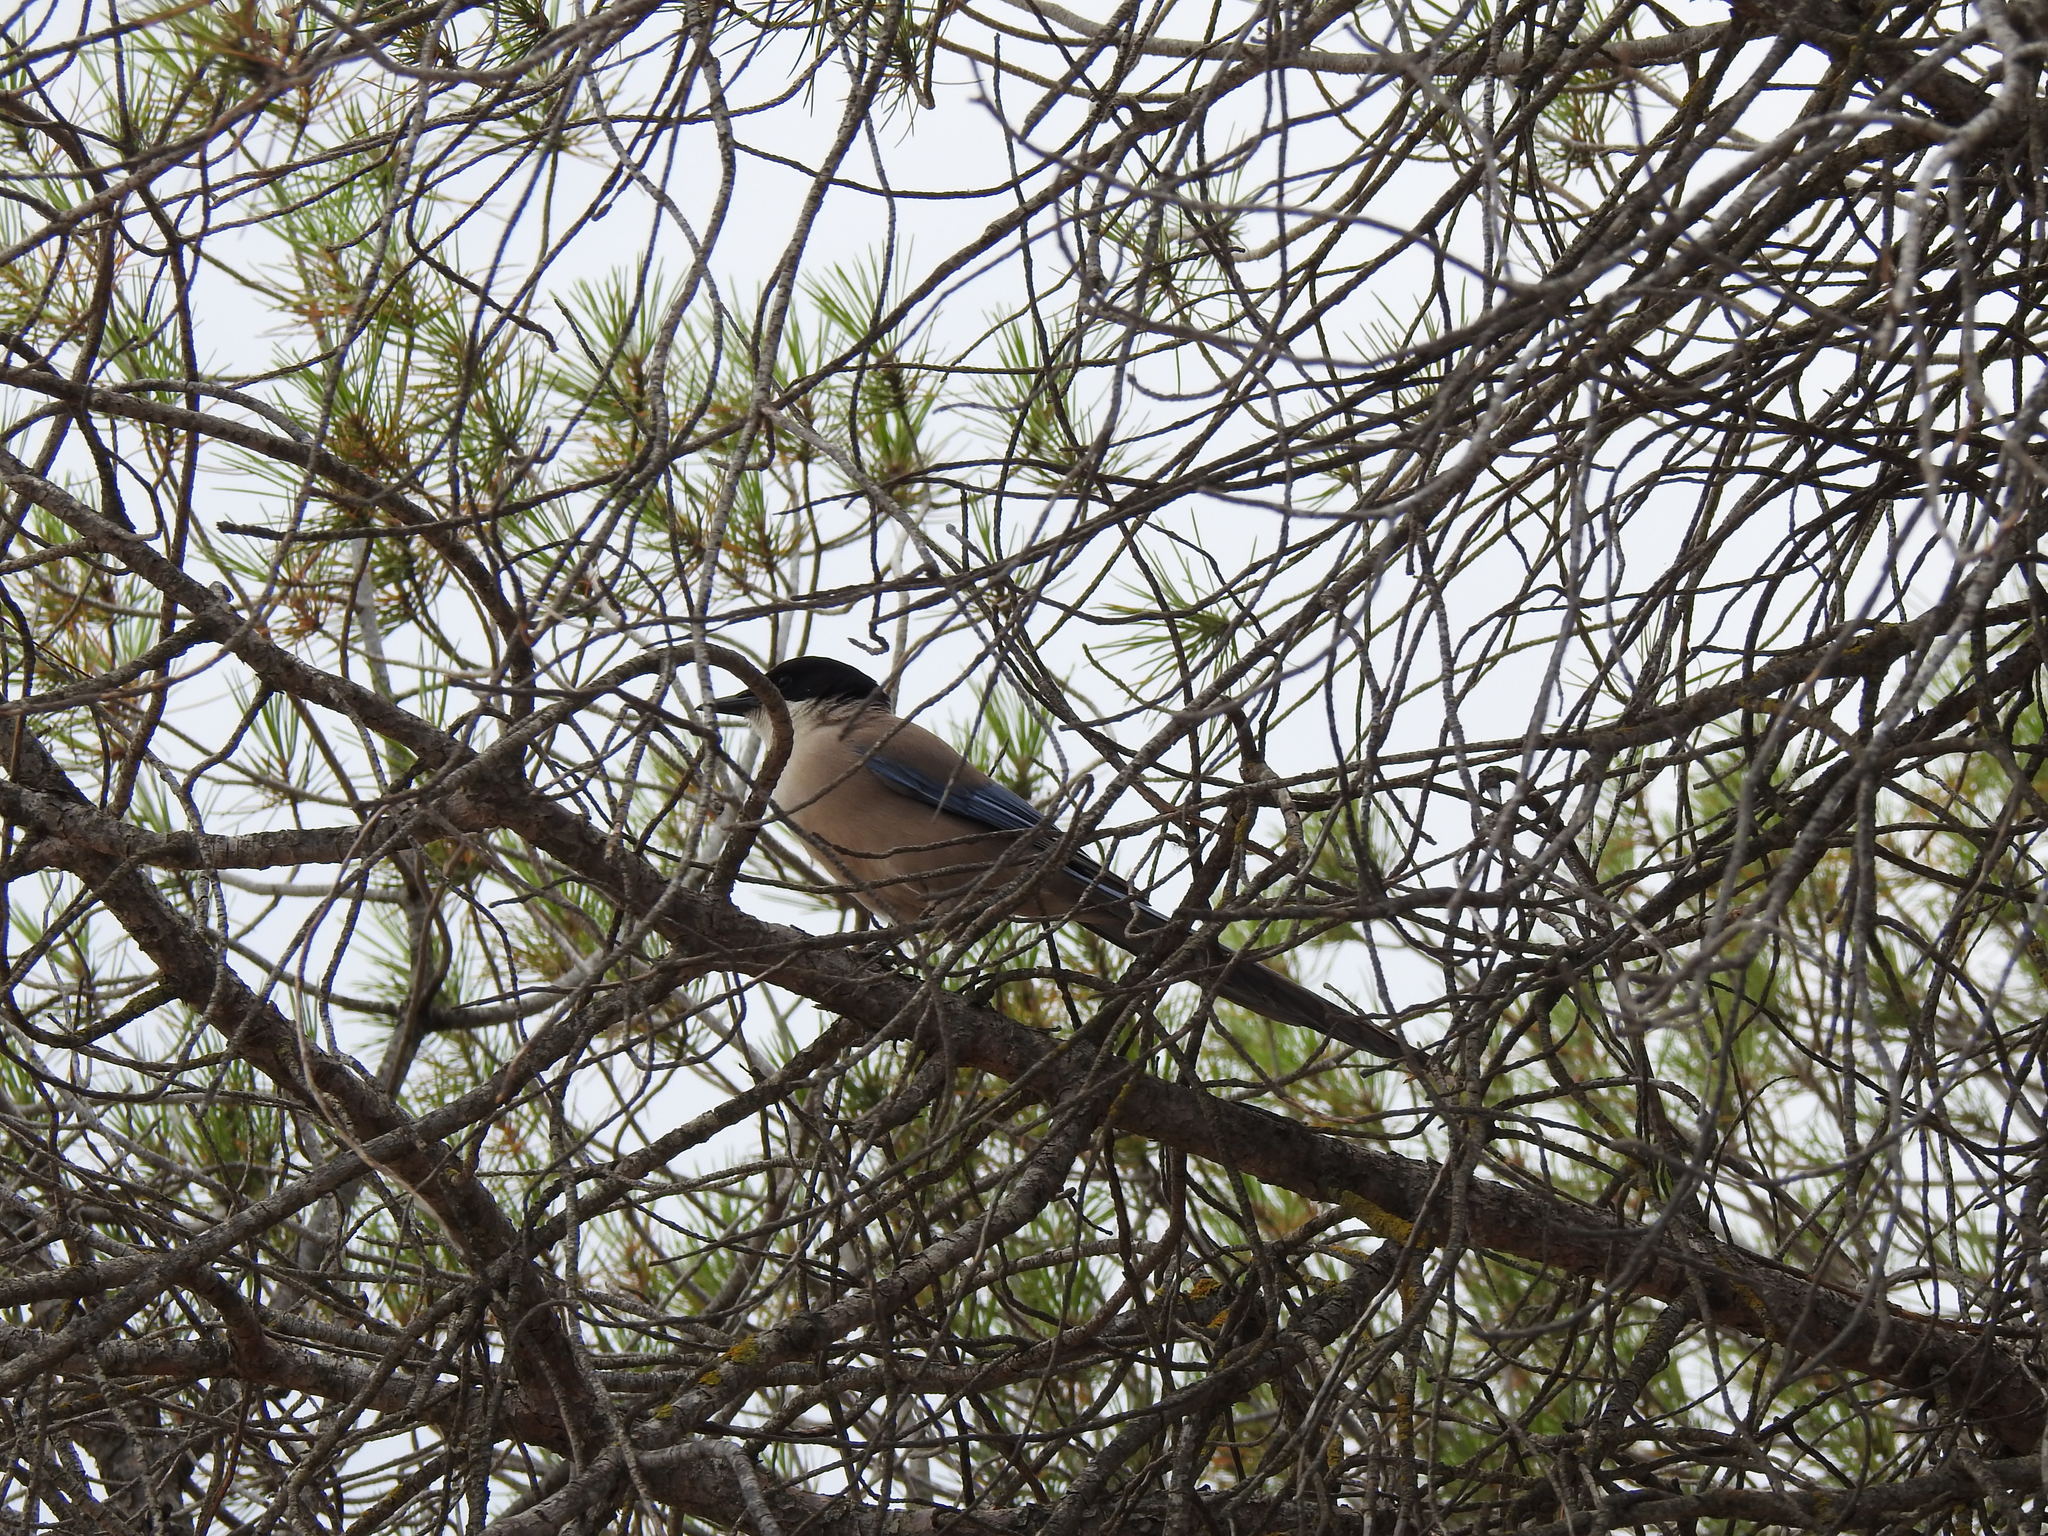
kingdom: Animalia
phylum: Chordata
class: Aves
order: Passeriformes
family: Corvidae
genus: Cyanopica
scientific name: Cyanopica cooki
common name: Iberian magpie
